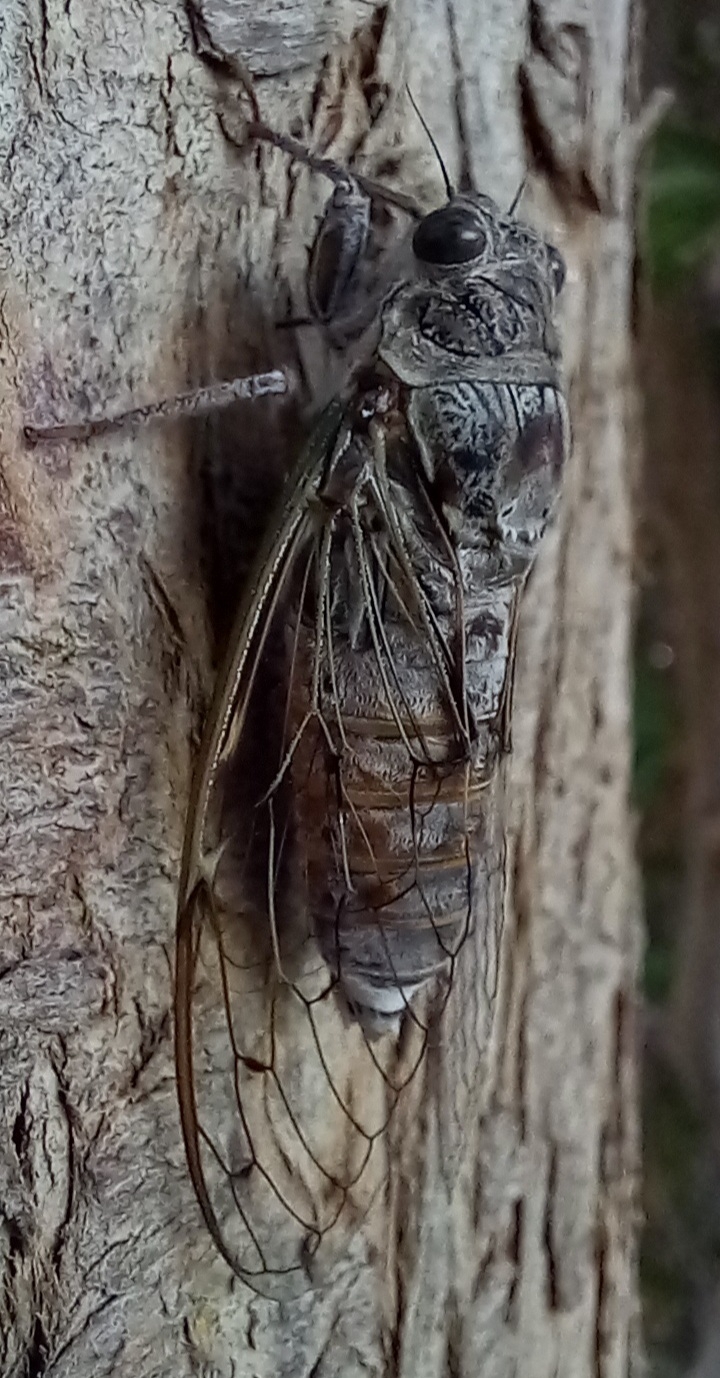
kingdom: Animalia
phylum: Arthropoda
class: Insecta
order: Hemiptera
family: Cicadidae
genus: Cicada
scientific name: Cicada cretensis
